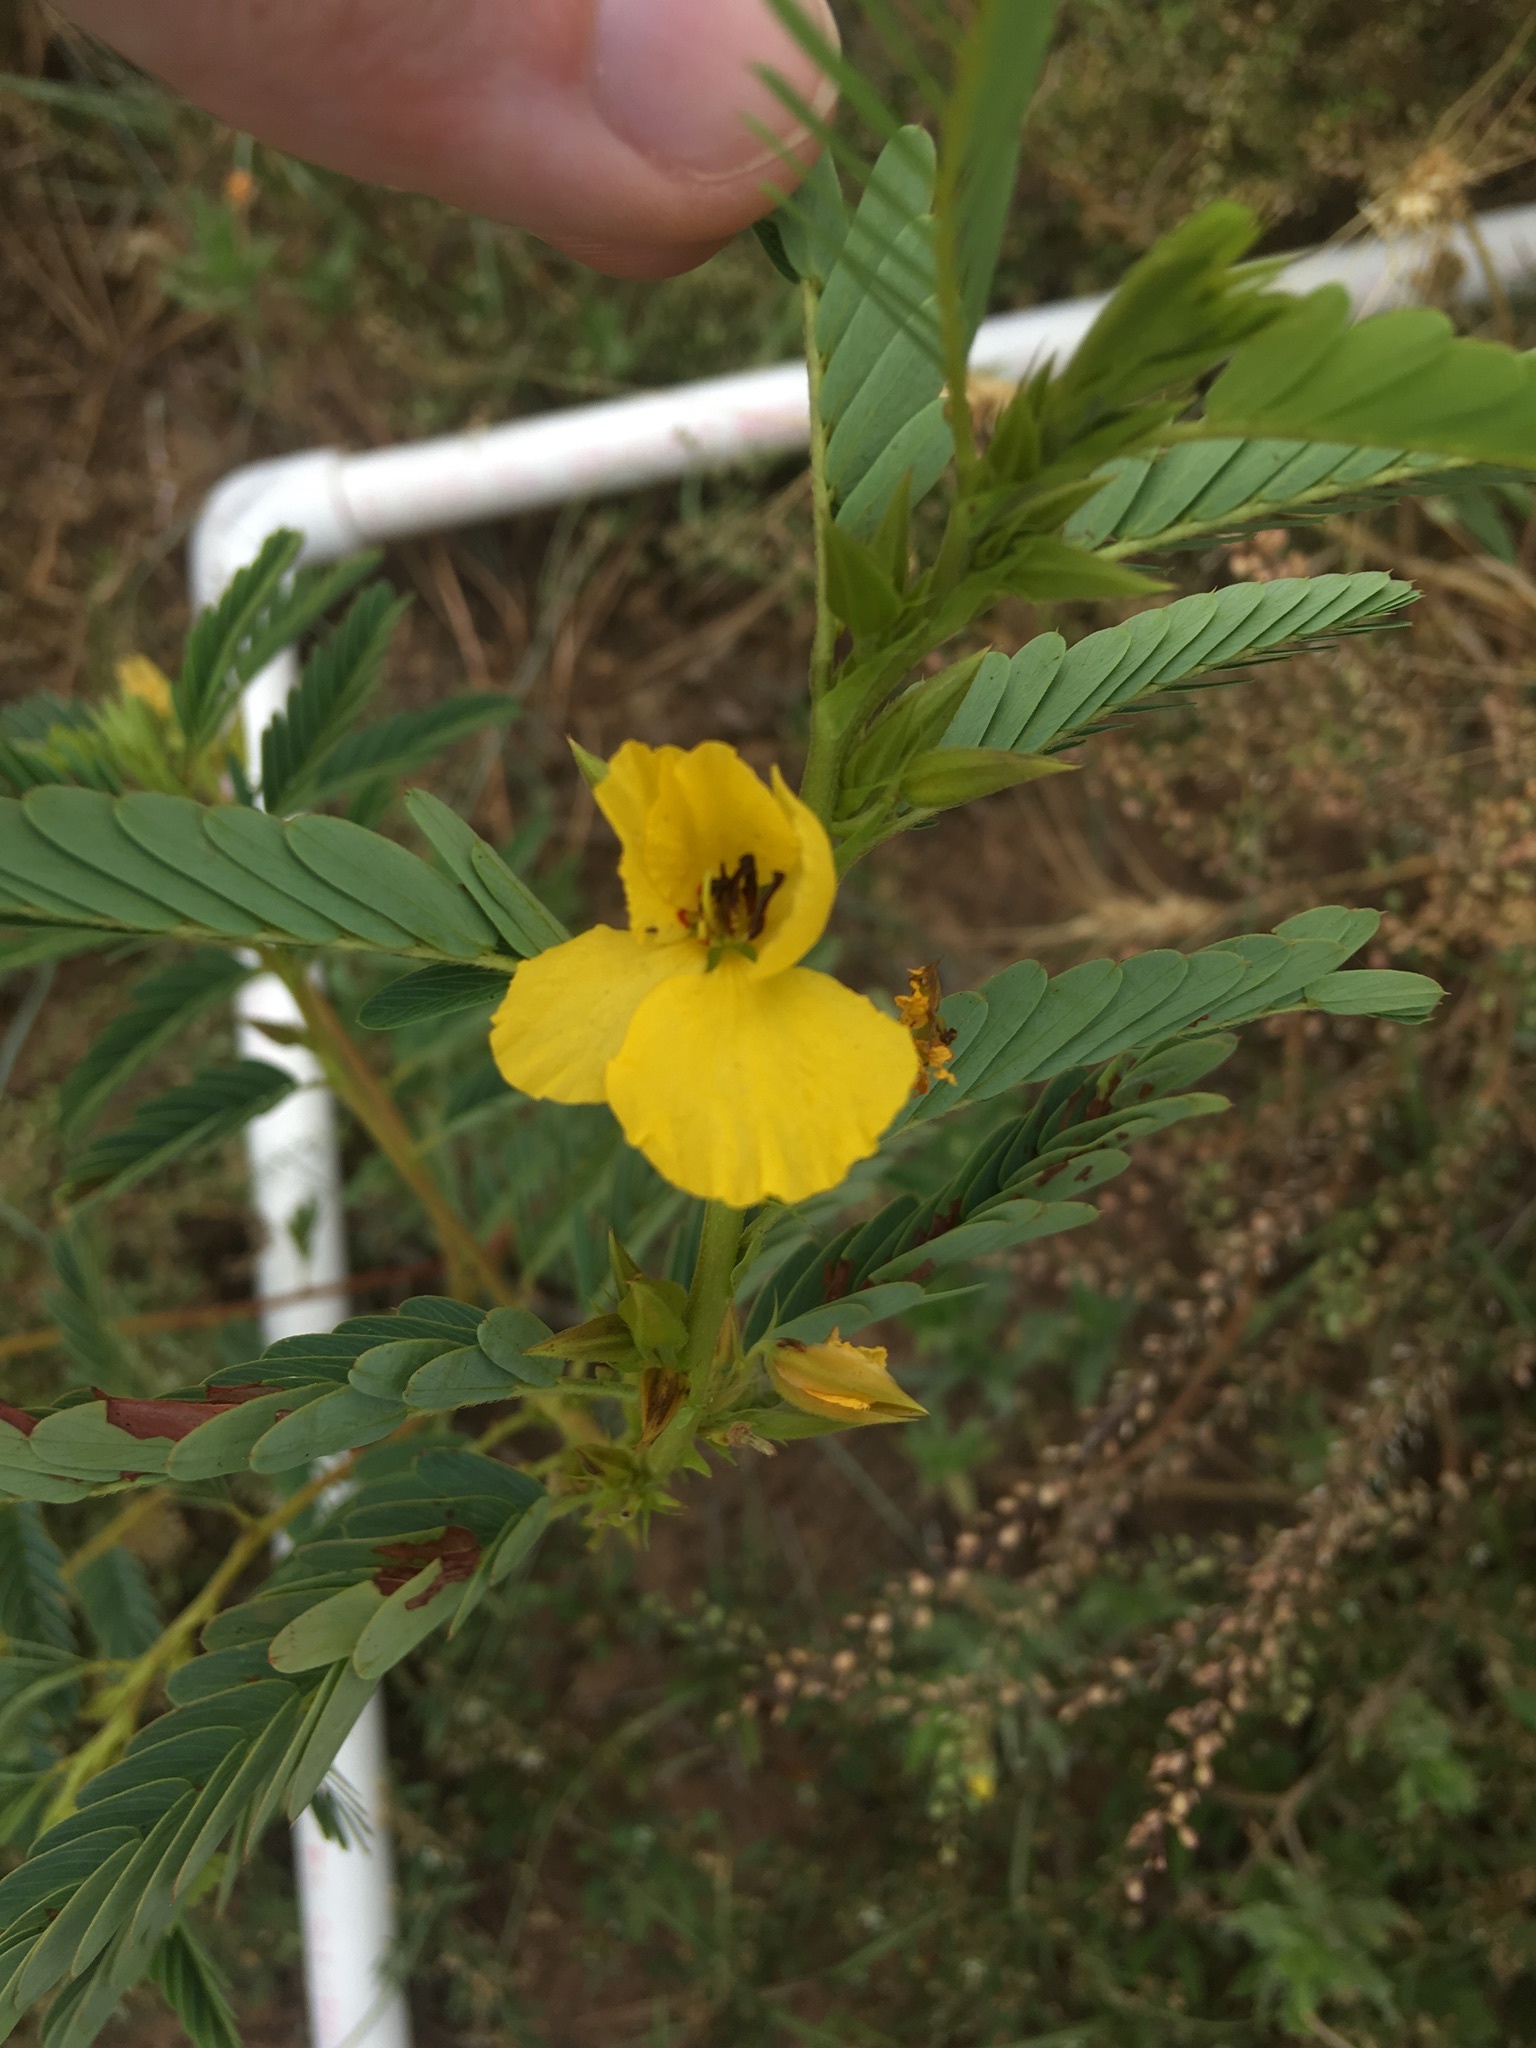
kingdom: Plantae
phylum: Tracheophyta
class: Magnoliopsida
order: Fabales
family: Fabaceae
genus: Chamaecrista
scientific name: Chamaecrista fasciculata
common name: Golden cassia
